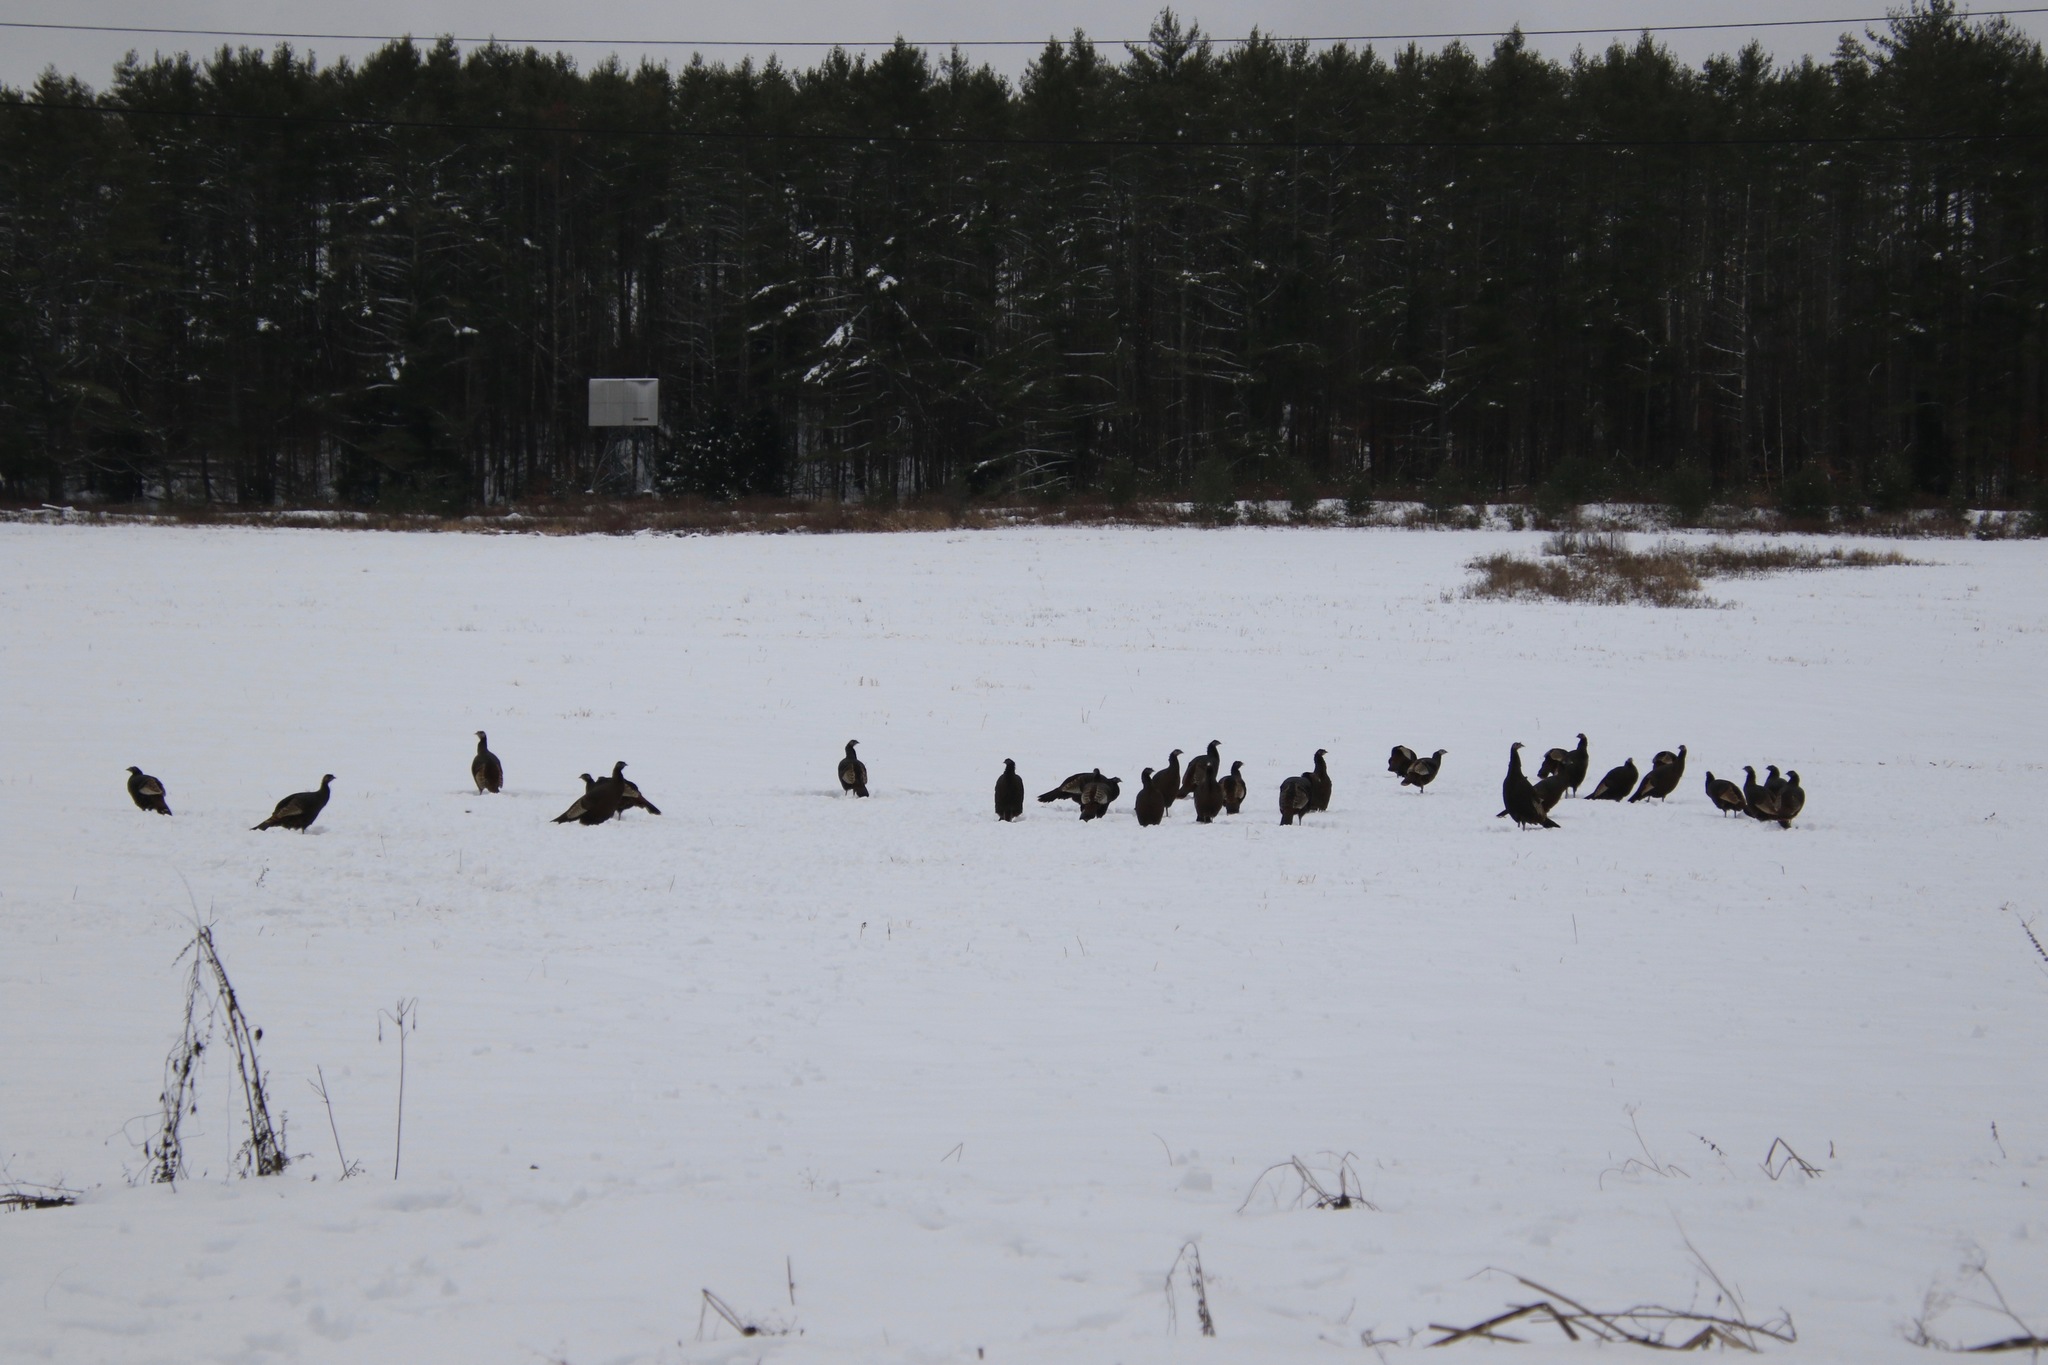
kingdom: Animalia
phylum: Chordata
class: Aves
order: Galliformes
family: Phasianidae
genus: Meleagris
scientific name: Meleagris gallopavo
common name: Wild turkey
